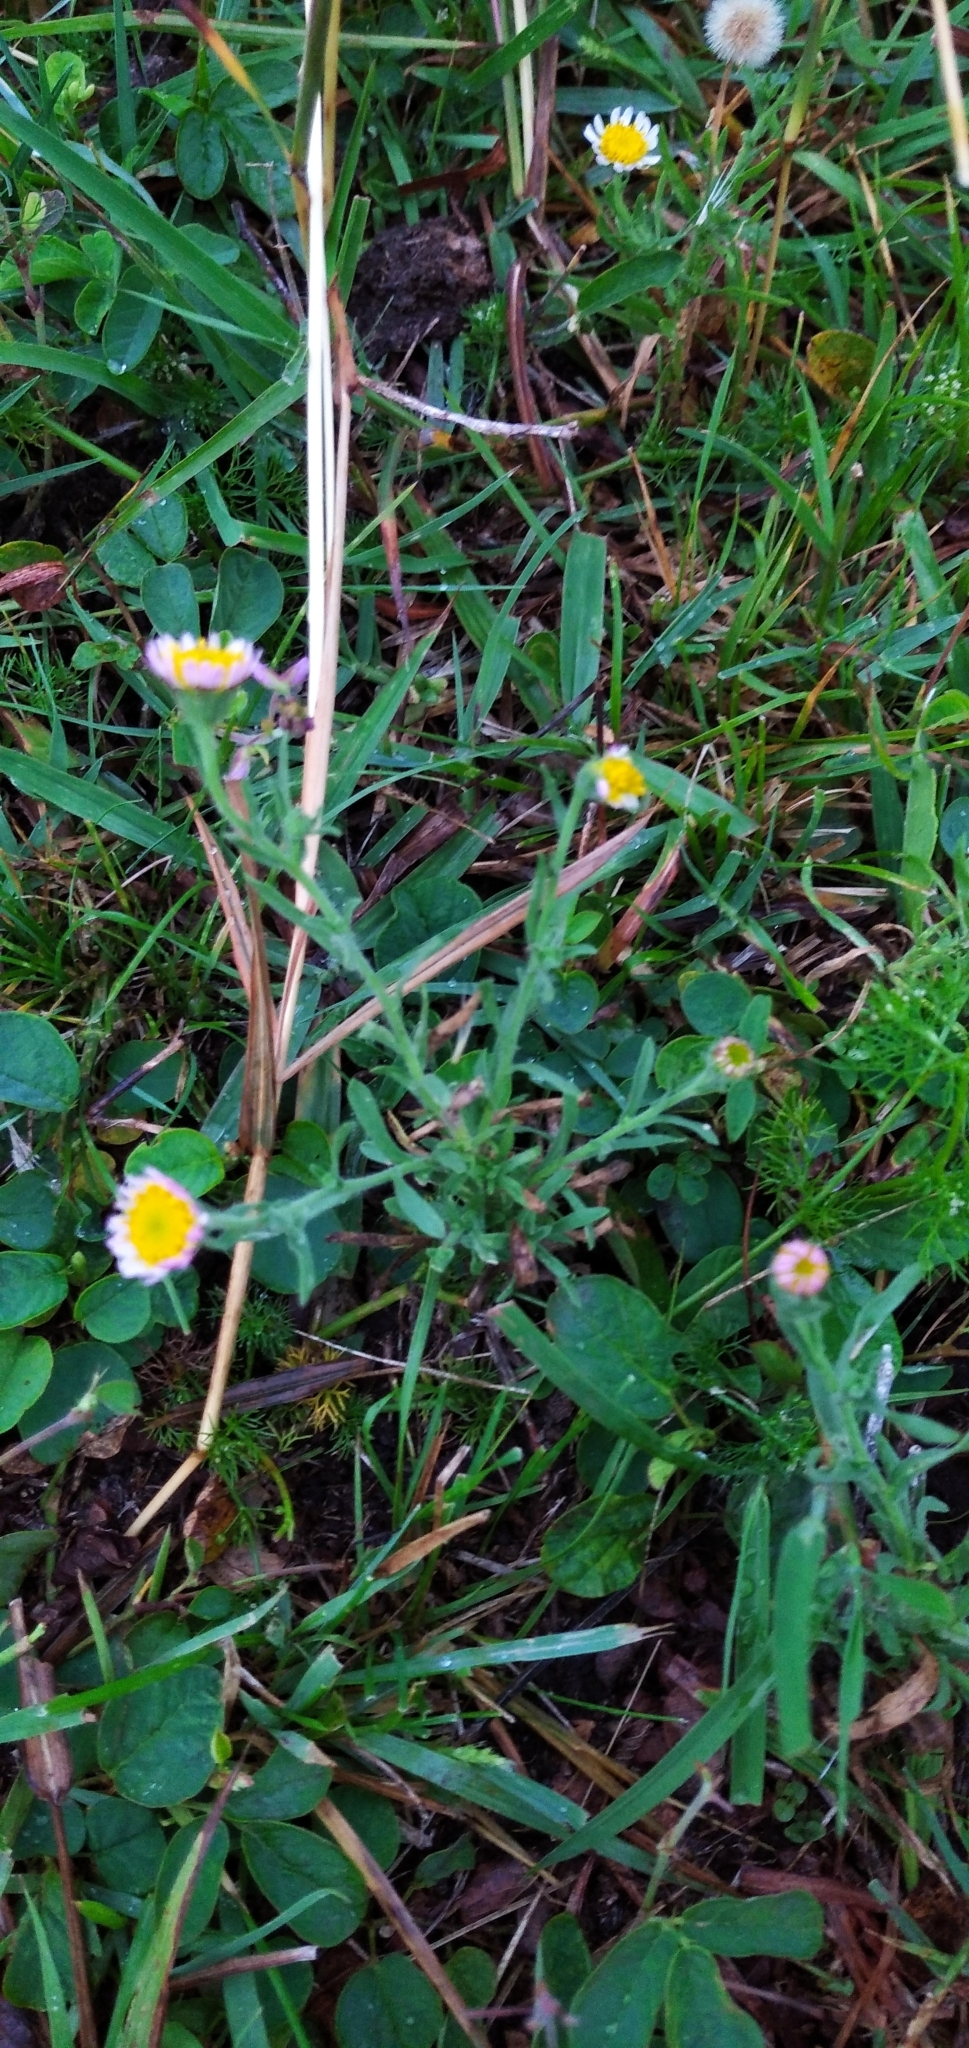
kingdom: Plantae
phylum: Tracheophyta
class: Magnoliopsida
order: Asterales
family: Asteraceae
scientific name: Asteraceae
